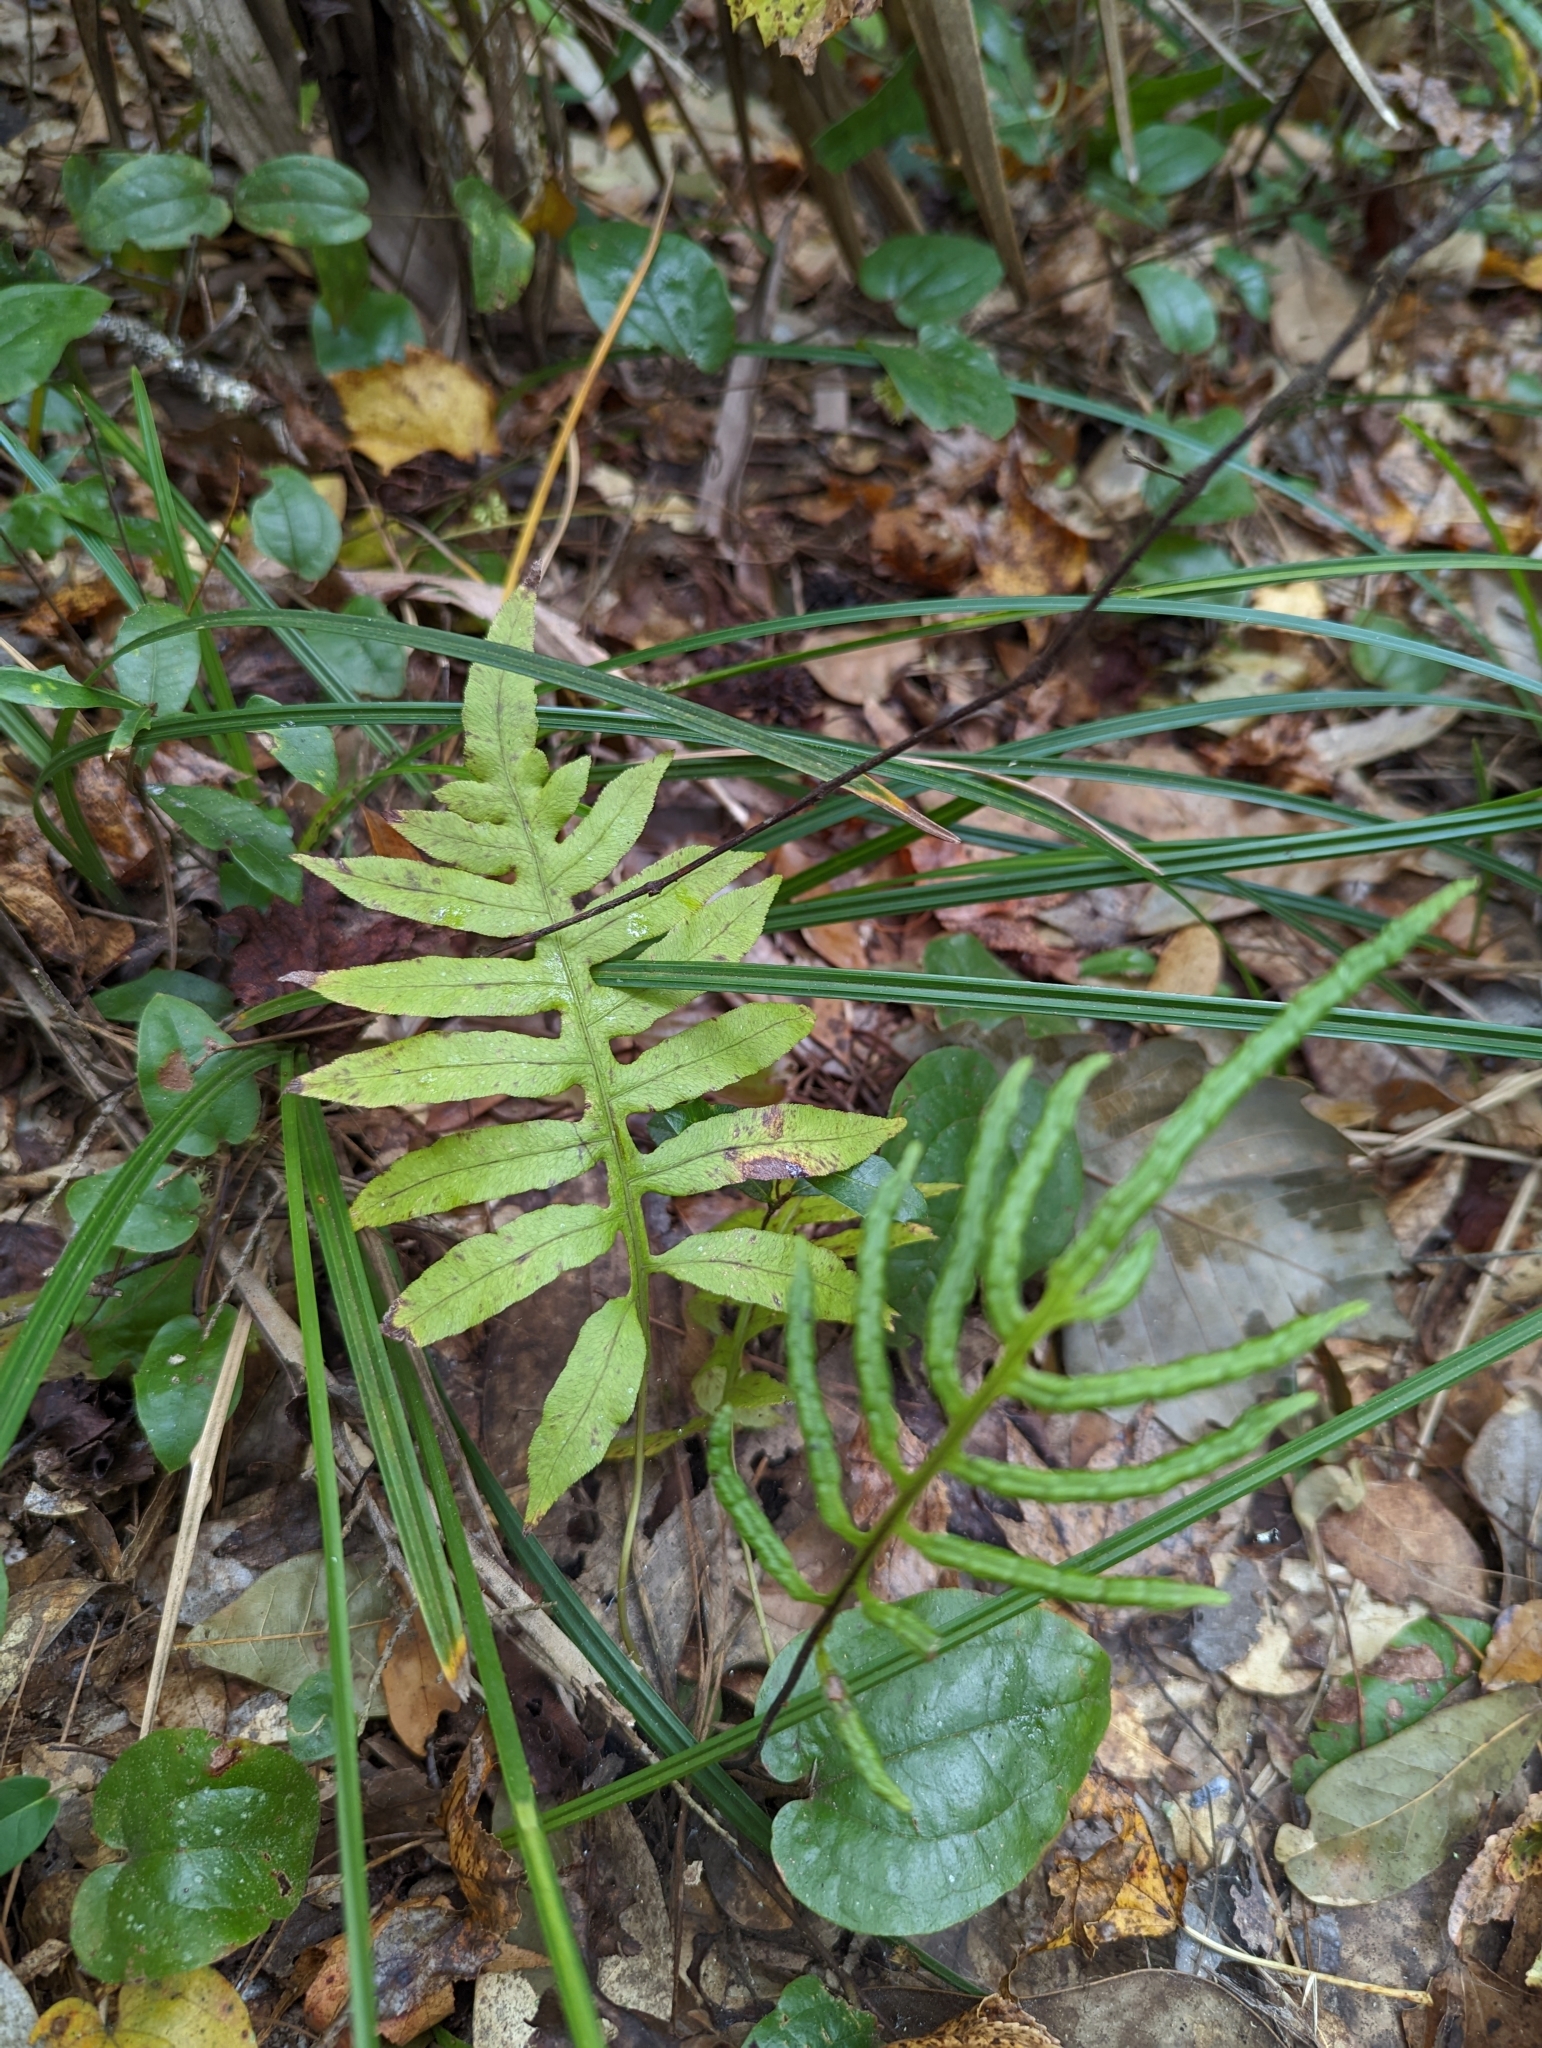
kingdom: Plantae
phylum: Tracheophyta
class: Polypodiopsida
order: Polypodiales
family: Blechnaceae
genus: Lorinseria
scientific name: Lorinseria areolata
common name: Dwarf chain fern
